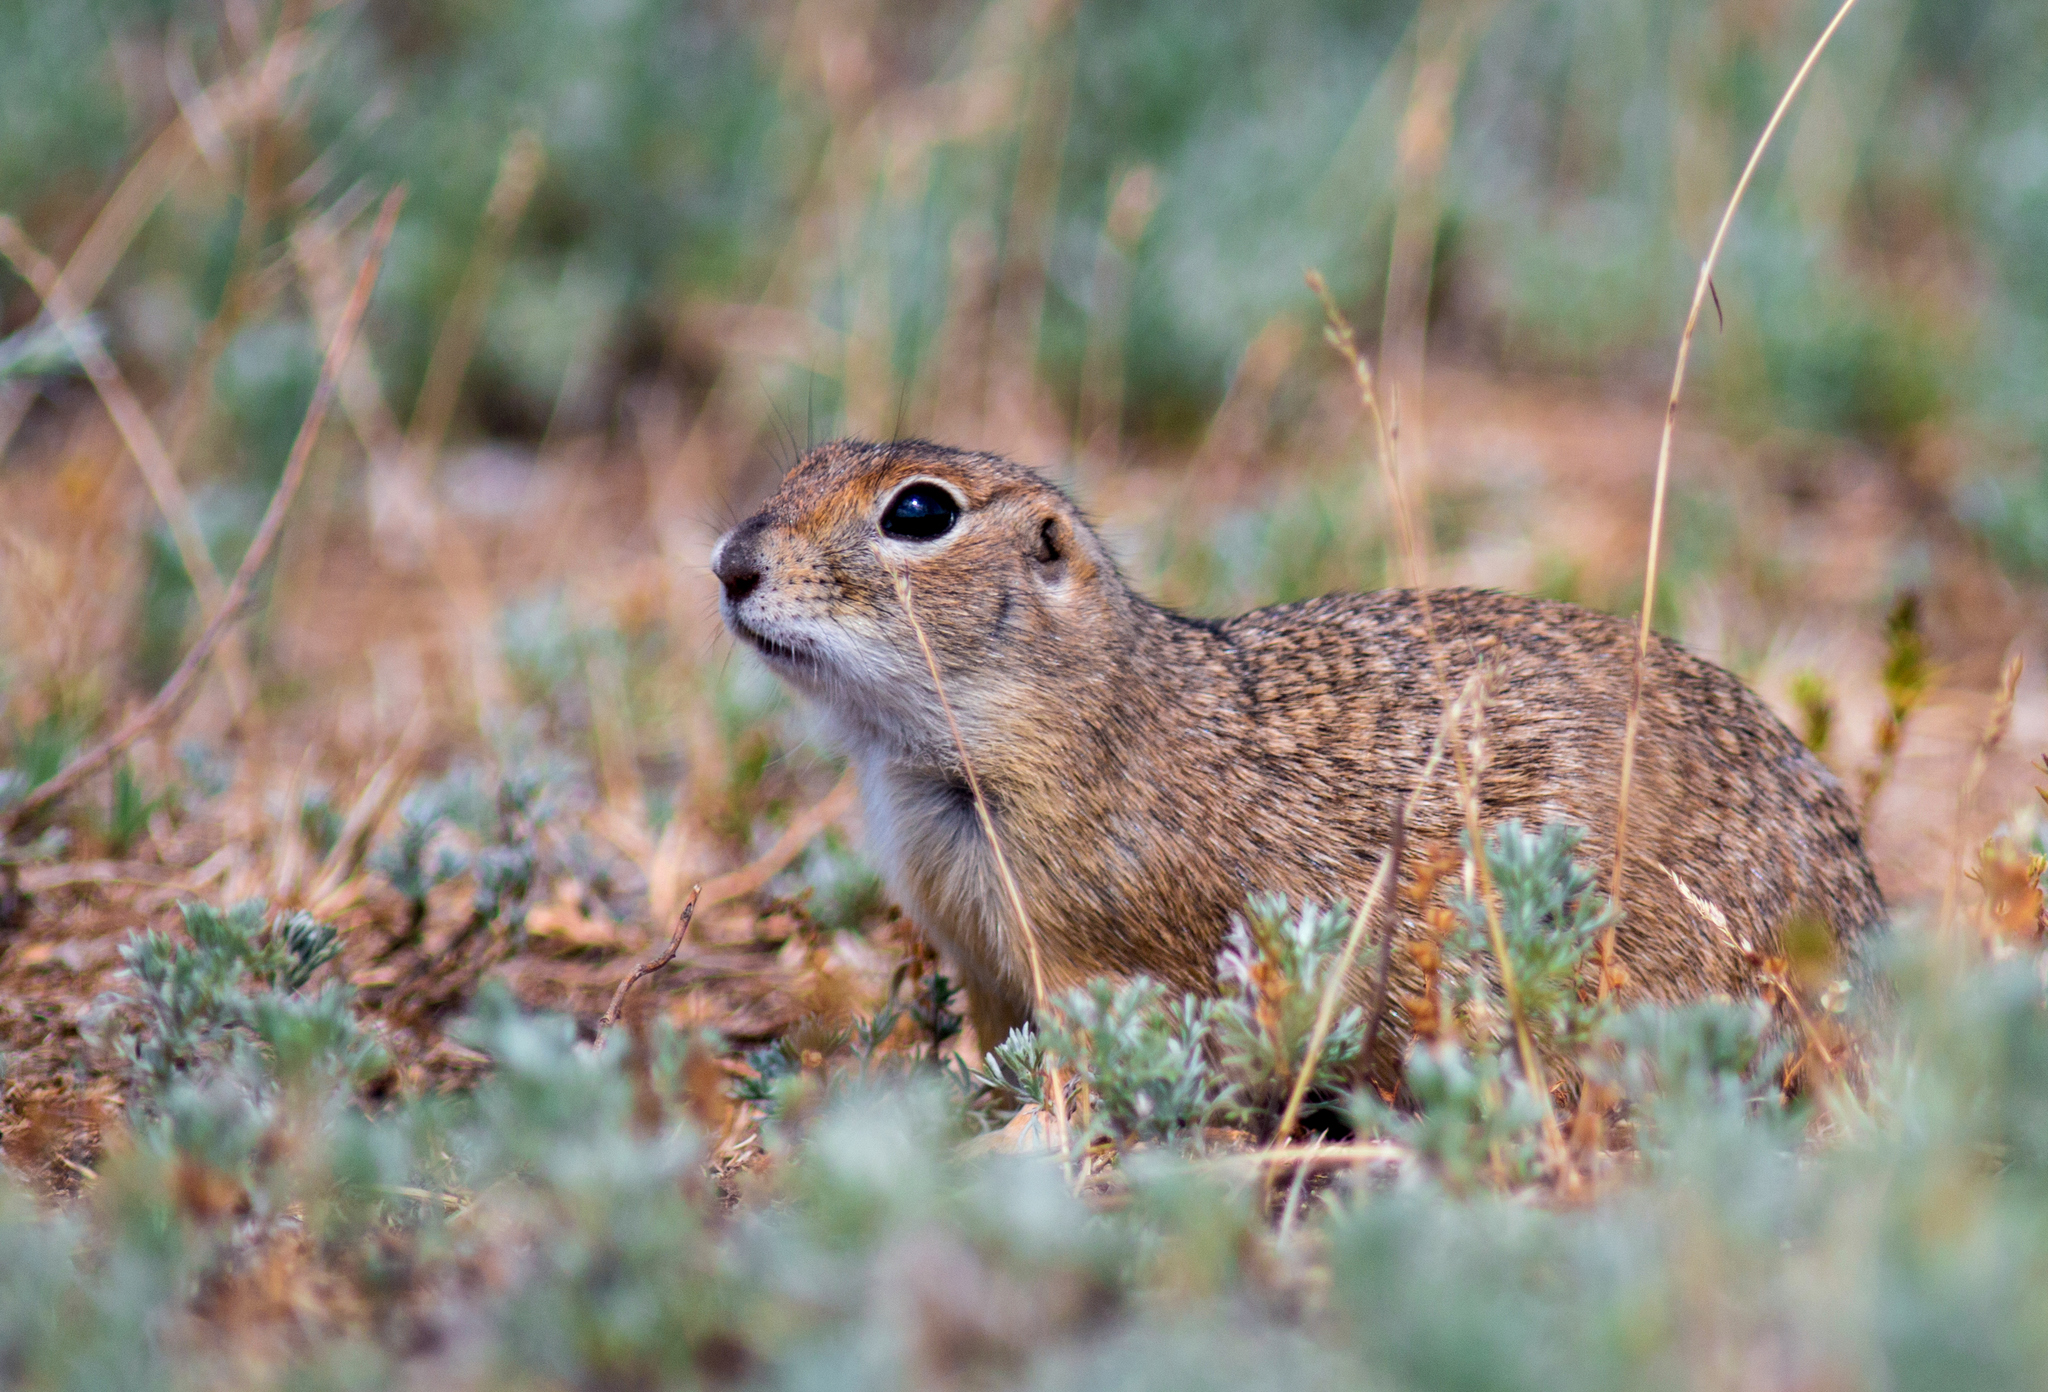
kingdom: Animalia
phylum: Chordata
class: Mammalia
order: Rodentia
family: Sciuridae
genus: Spermophilus
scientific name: Spermophilus pygmaeus
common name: Little ground squirrel
